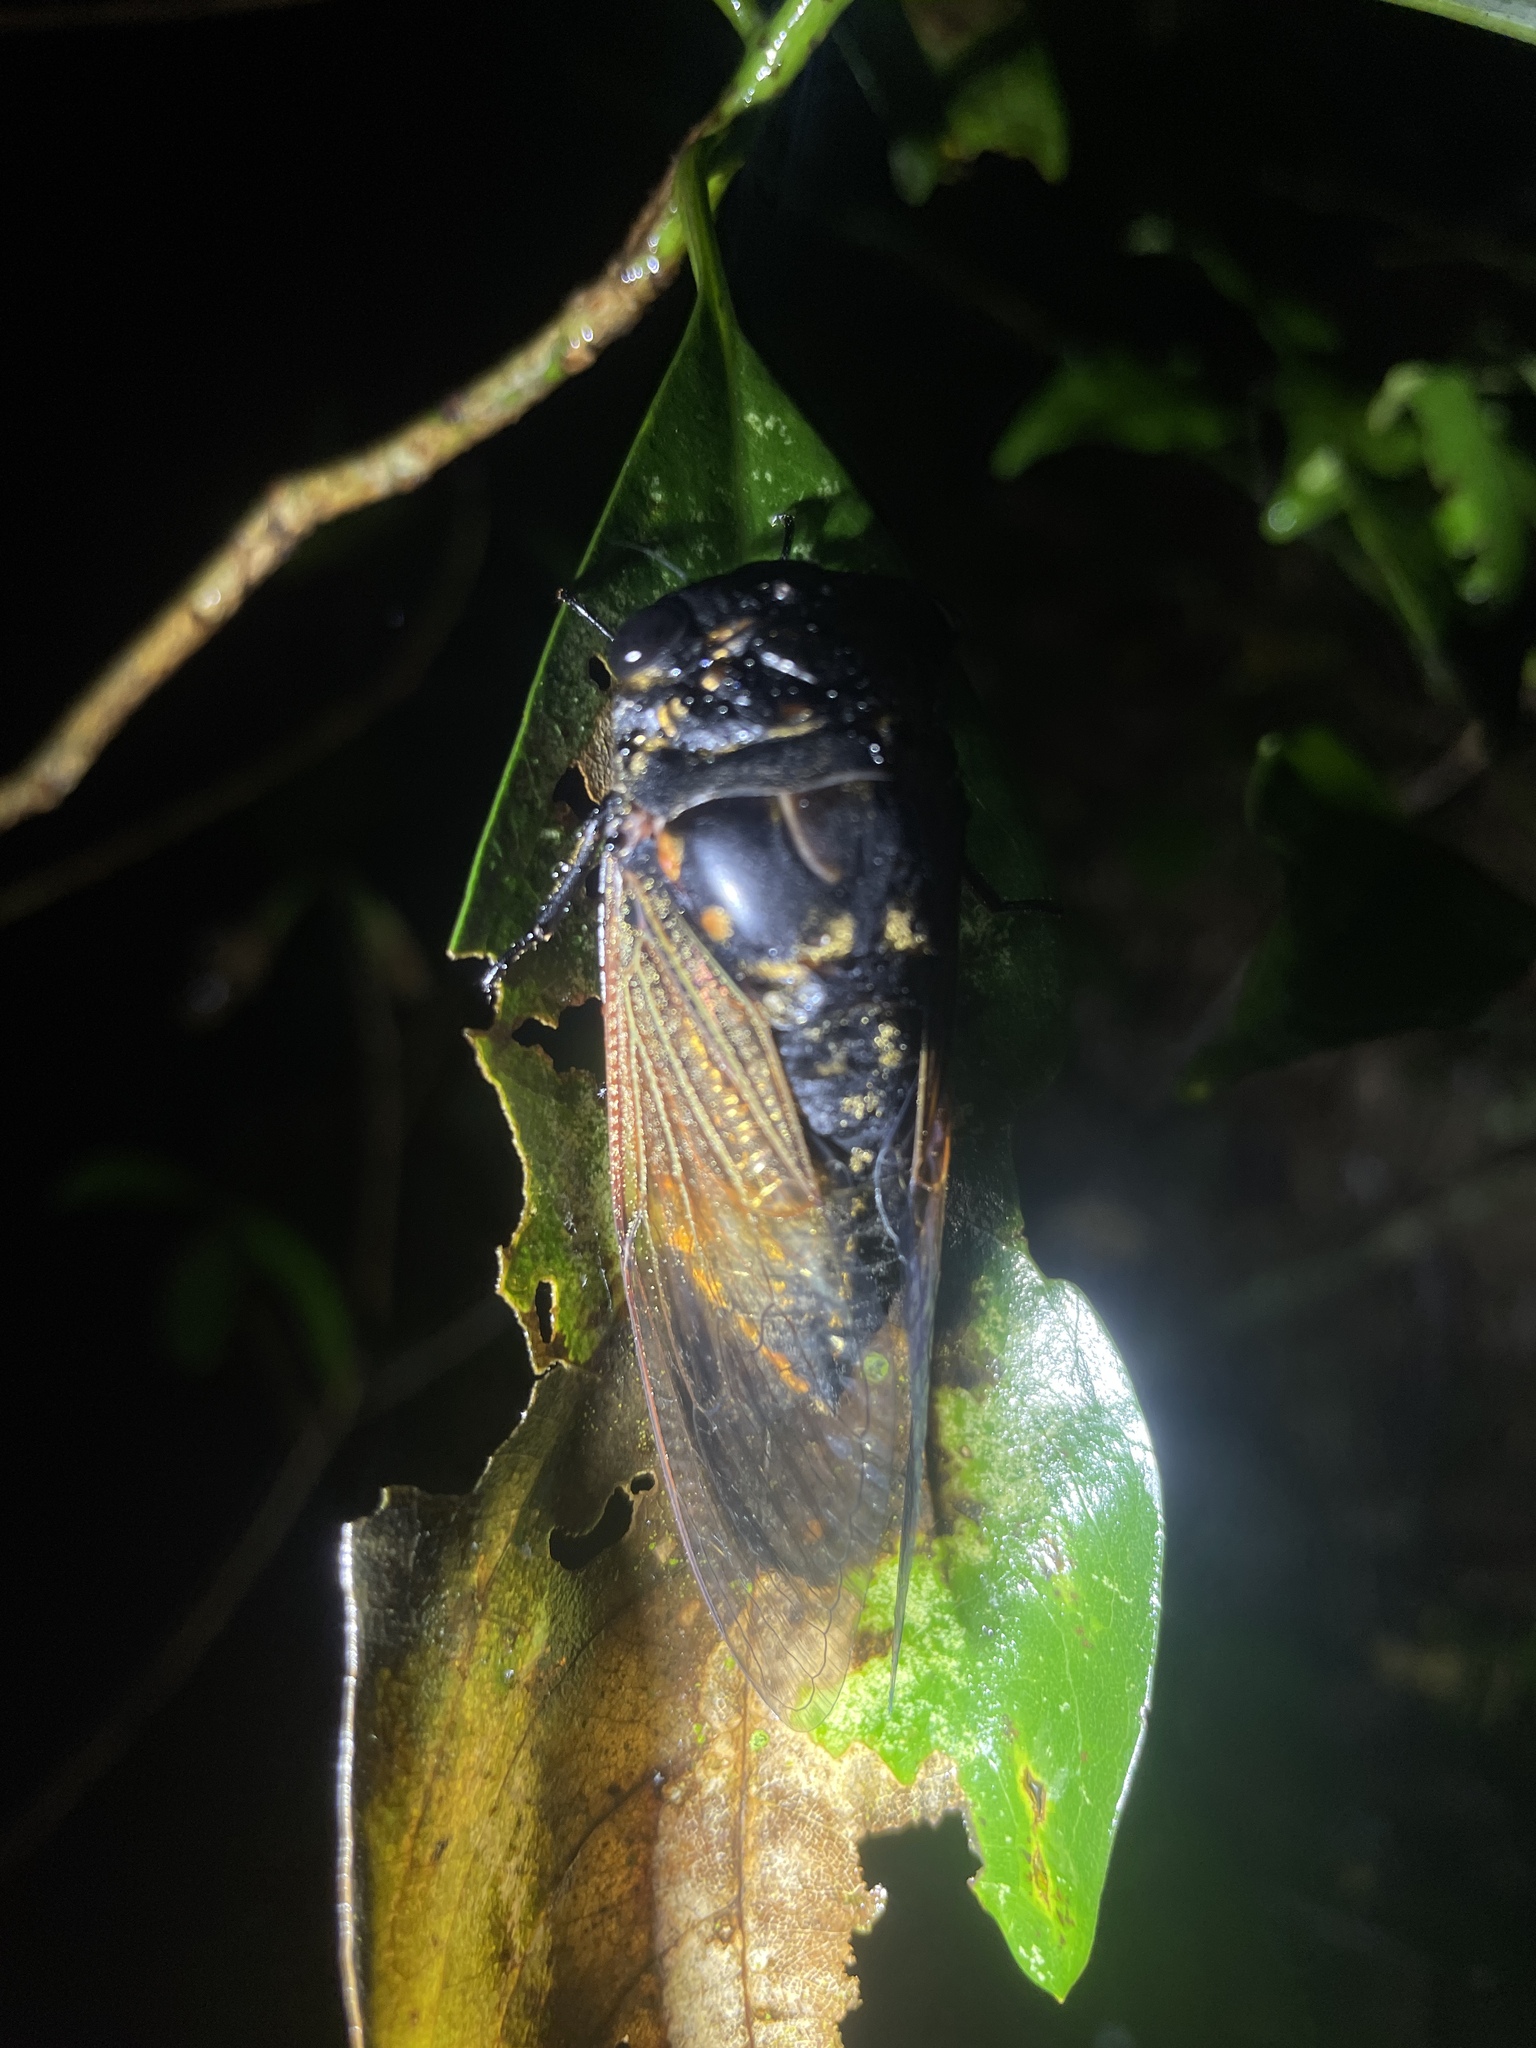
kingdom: Animalia
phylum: Arthropoda
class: Insecta
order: Hemiptera
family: Cicadidae
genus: Cryptotympana
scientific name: Cryptotympana mandarina
